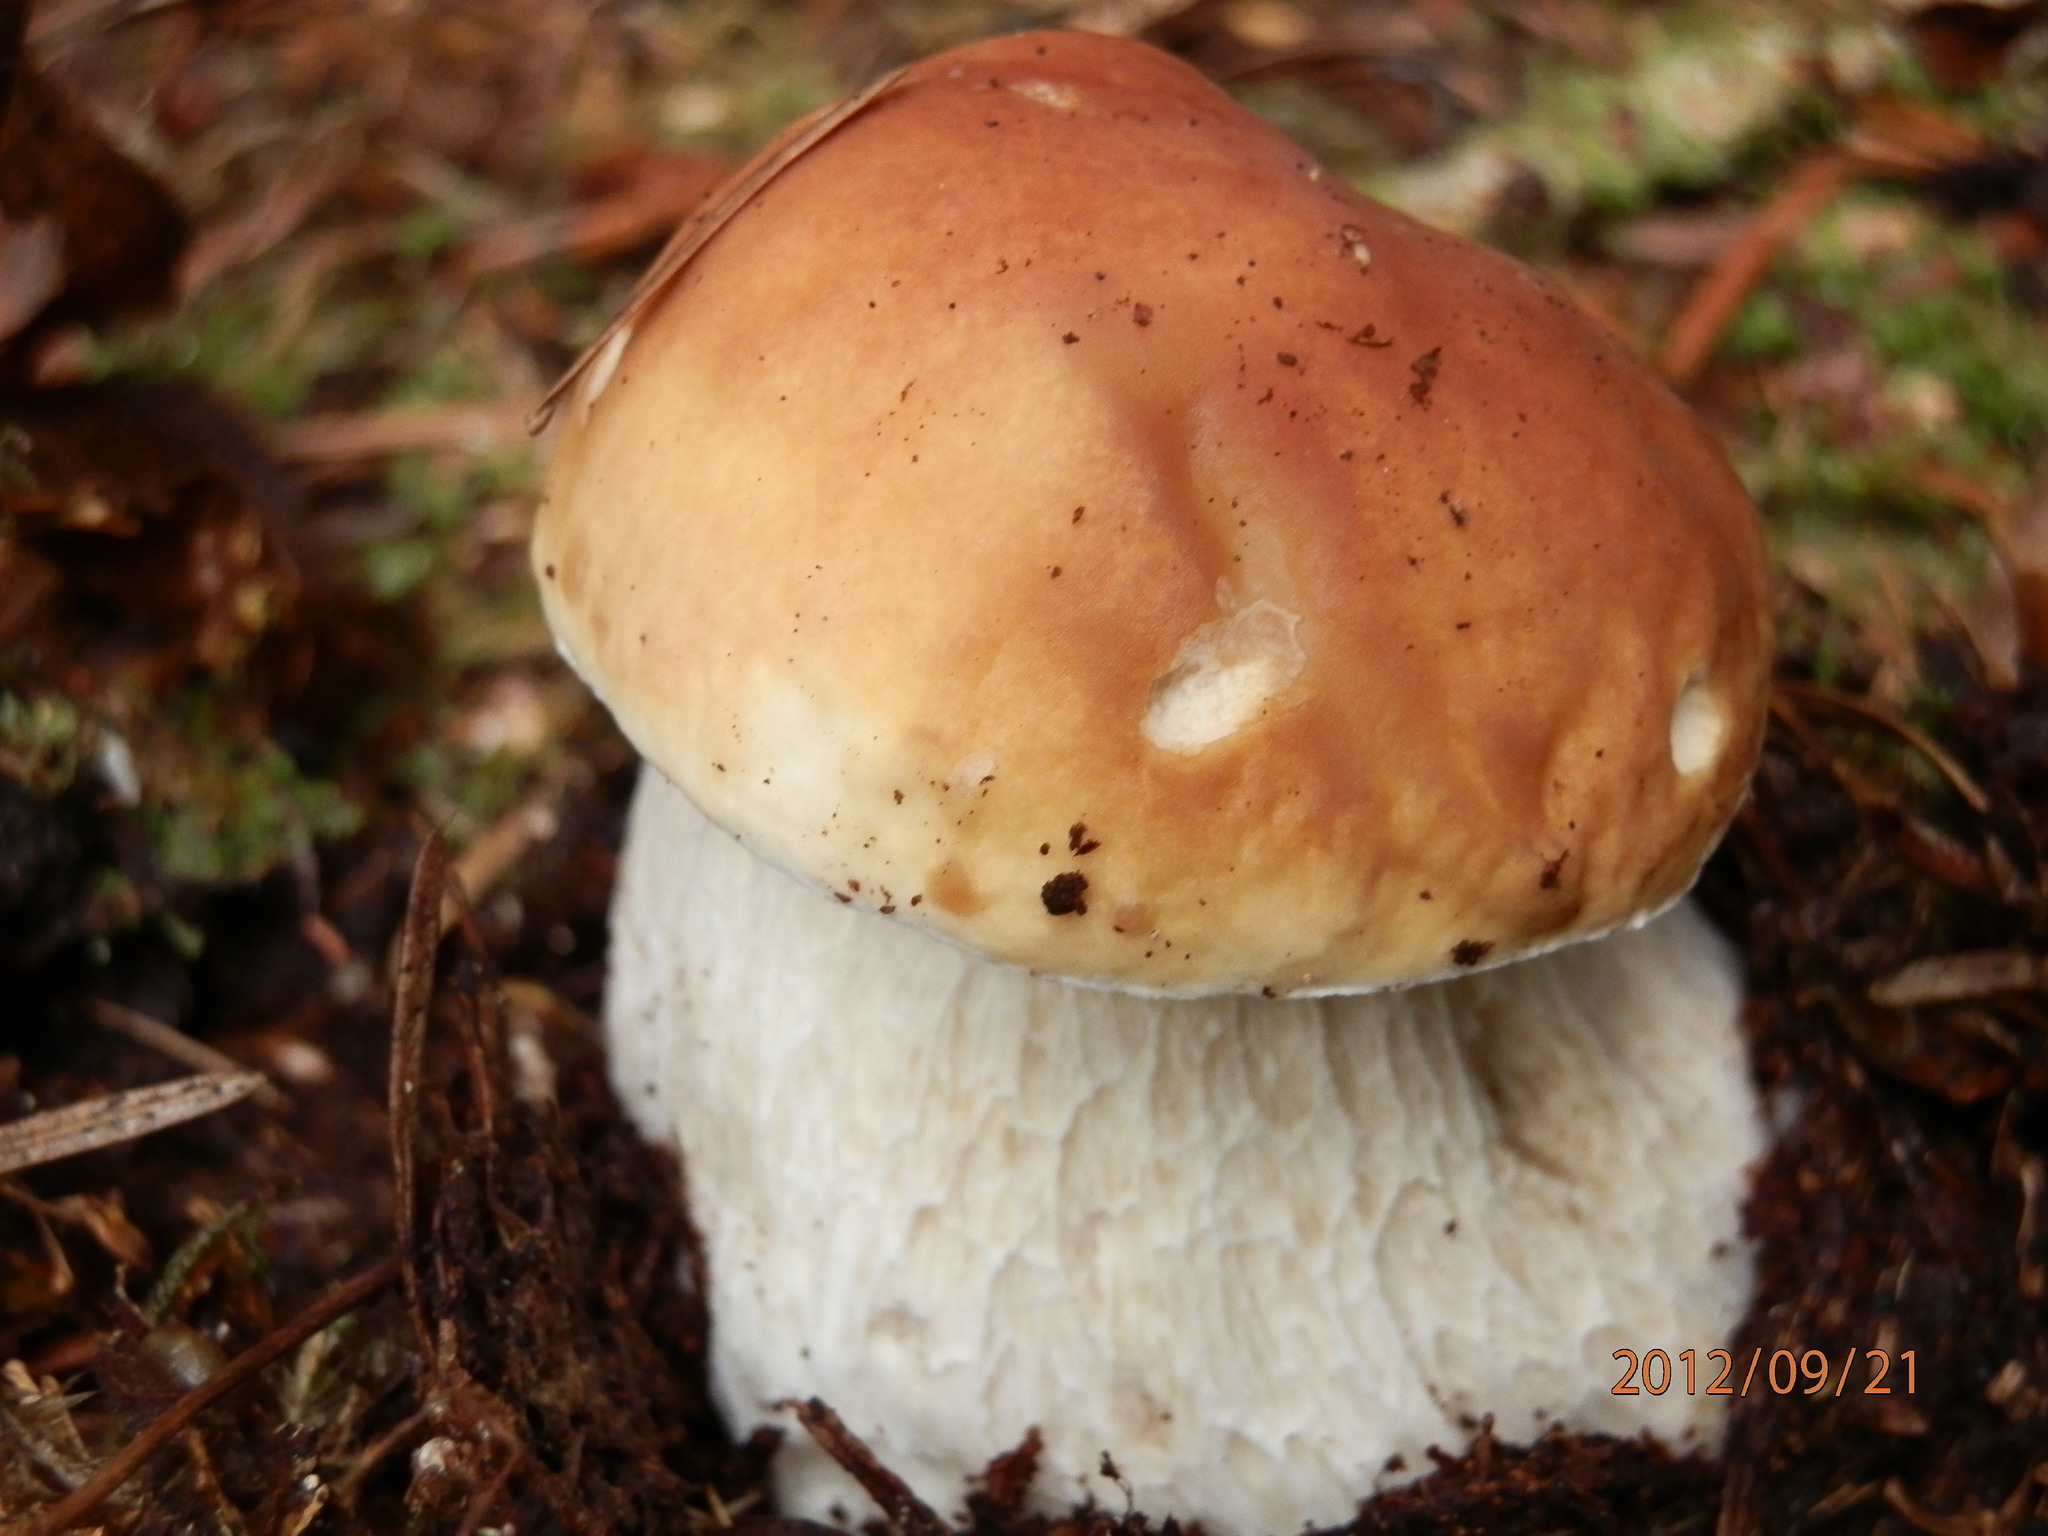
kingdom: Fungi
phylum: Basidiomycota
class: Agaricomycetes
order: Boletales
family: Boletaceae
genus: Boletus
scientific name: Boletus chippewaensis
